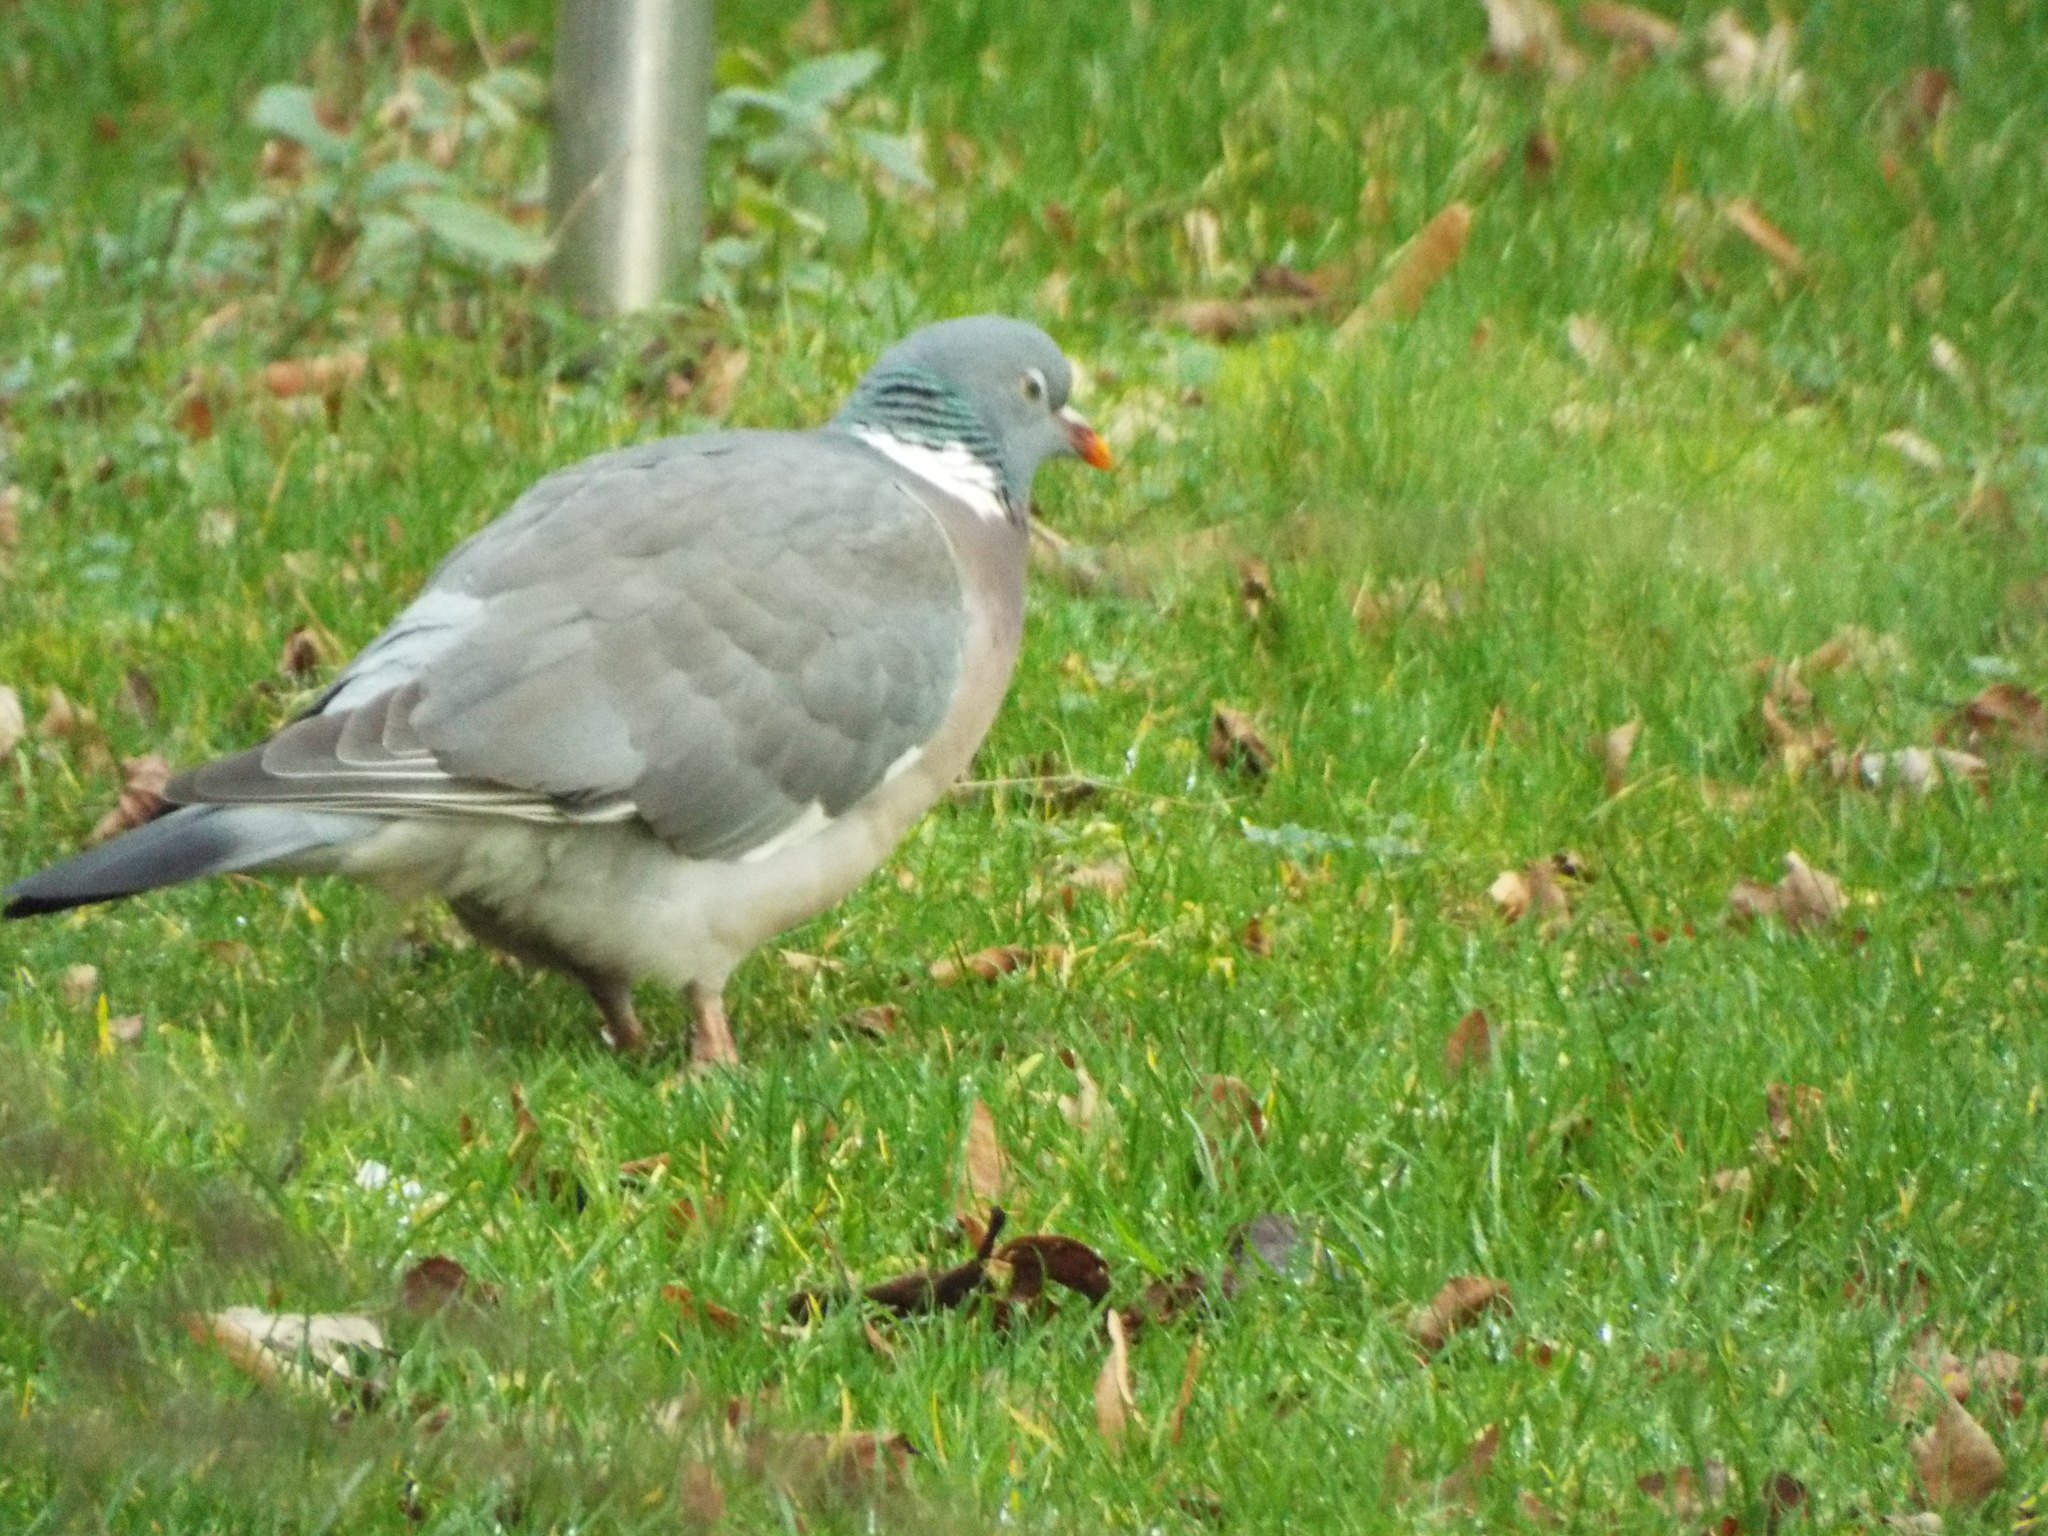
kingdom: Animalia
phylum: Chordata
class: Aves
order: Columbiformes
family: Columbidae
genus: Columba
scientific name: Columba palumbus
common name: Common wood pigeon
